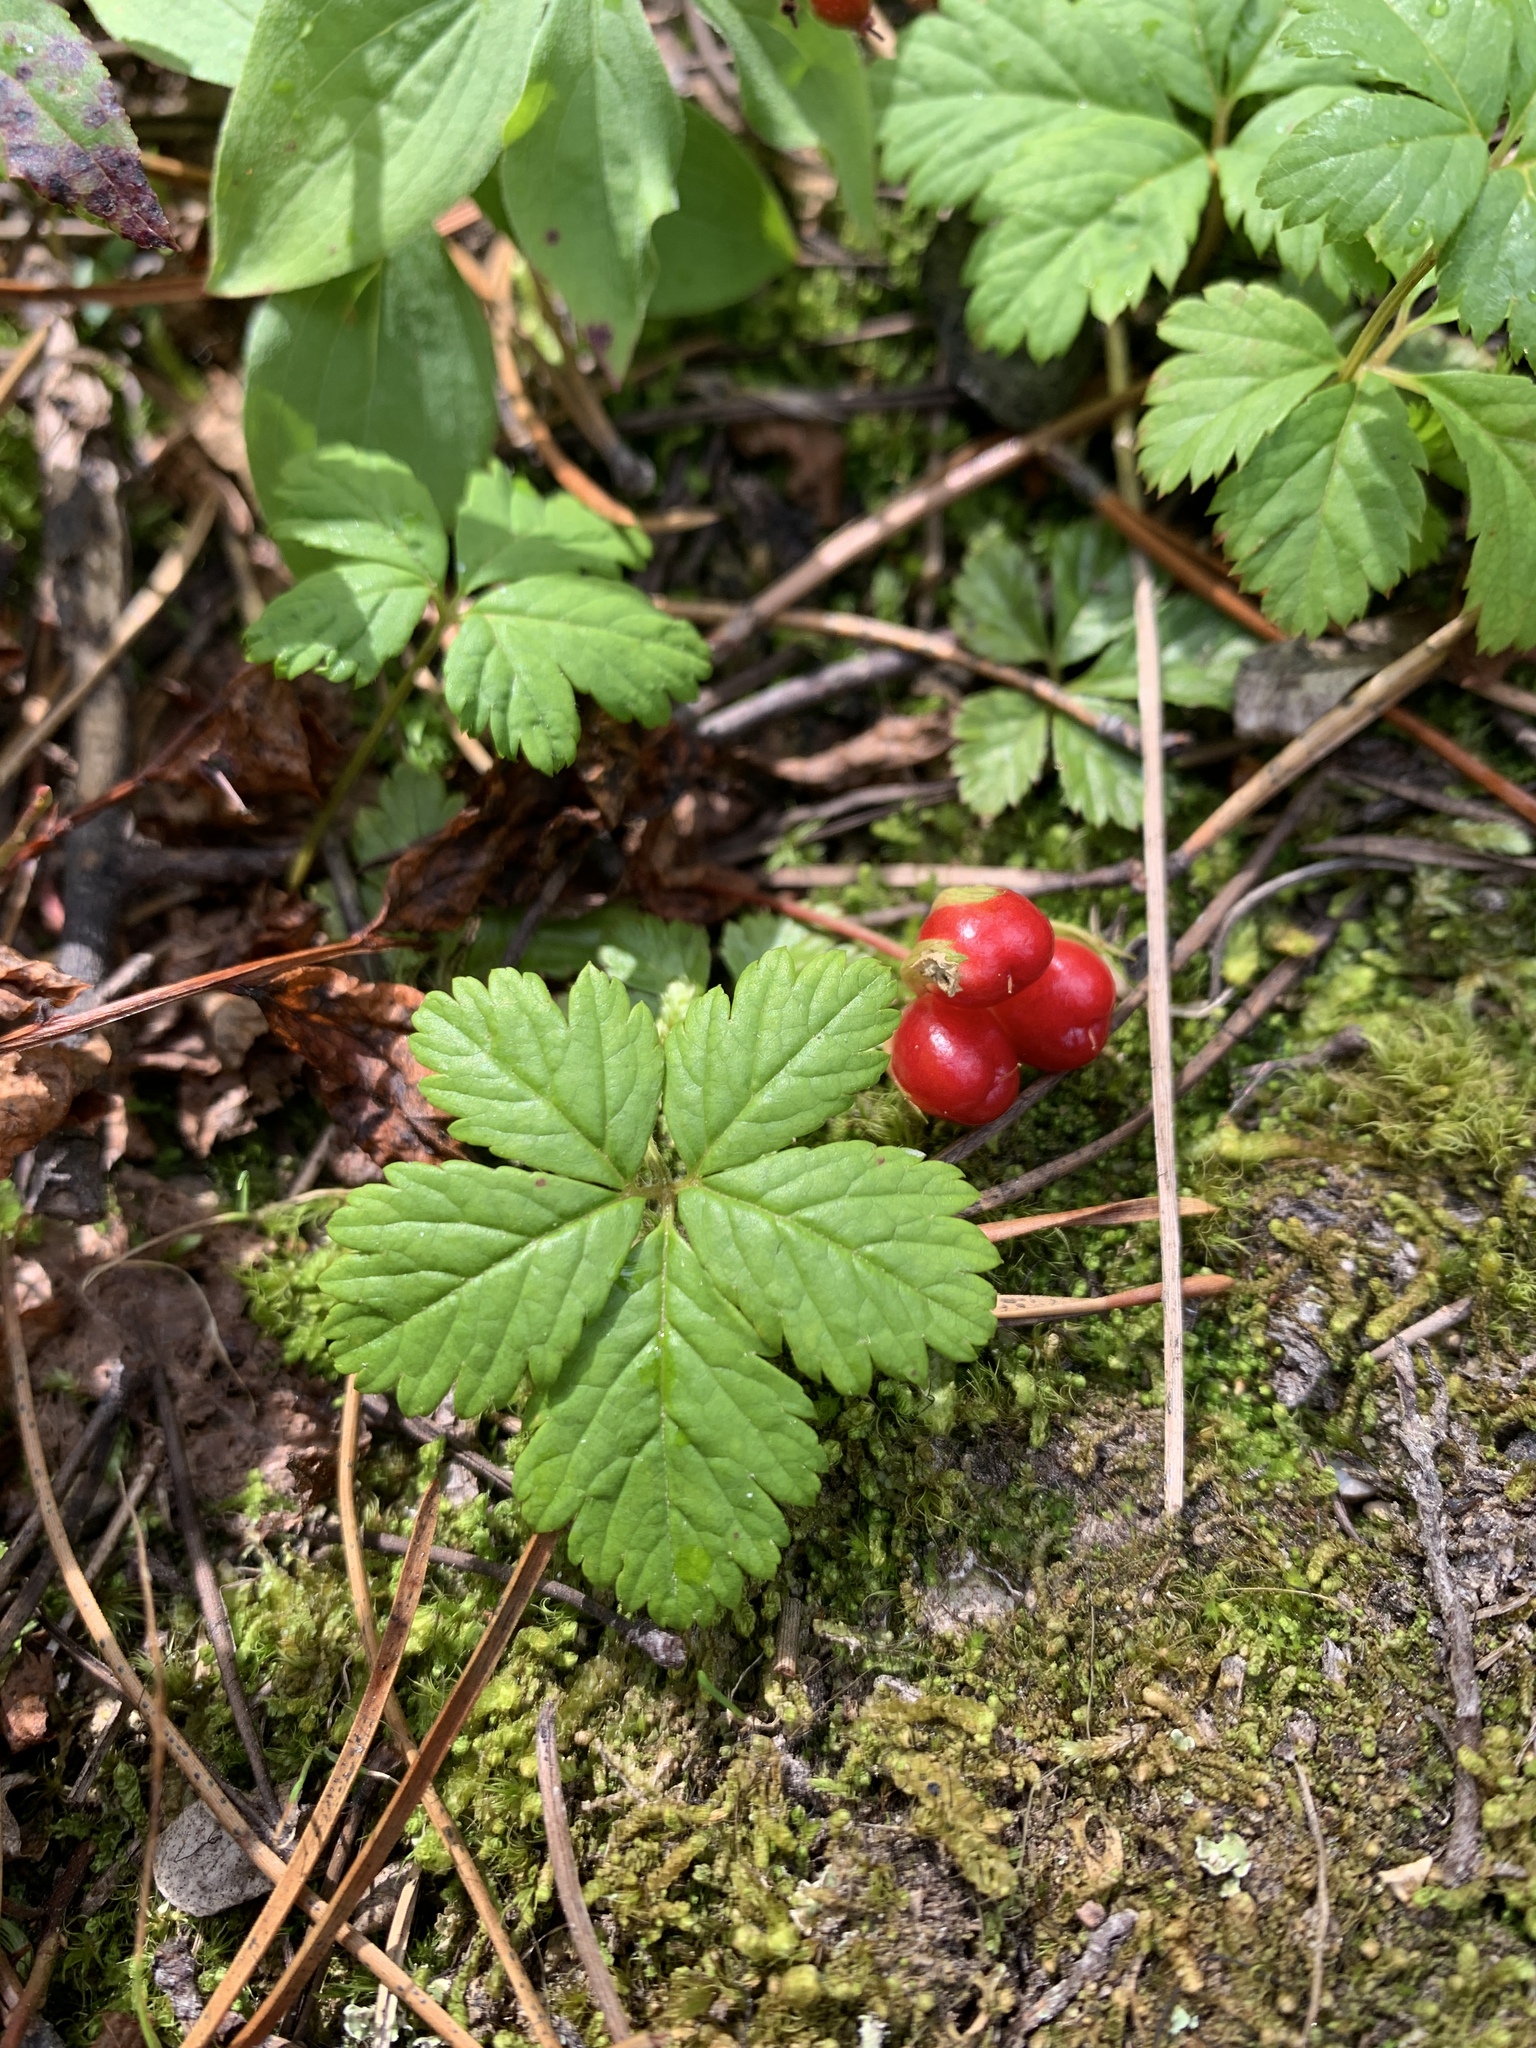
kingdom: Plantae
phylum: Tracheophyta
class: Magnoliopsida
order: Rosales
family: Rosaceae
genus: Rubus
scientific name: Rubus pedatus
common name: Creeping raspberry
